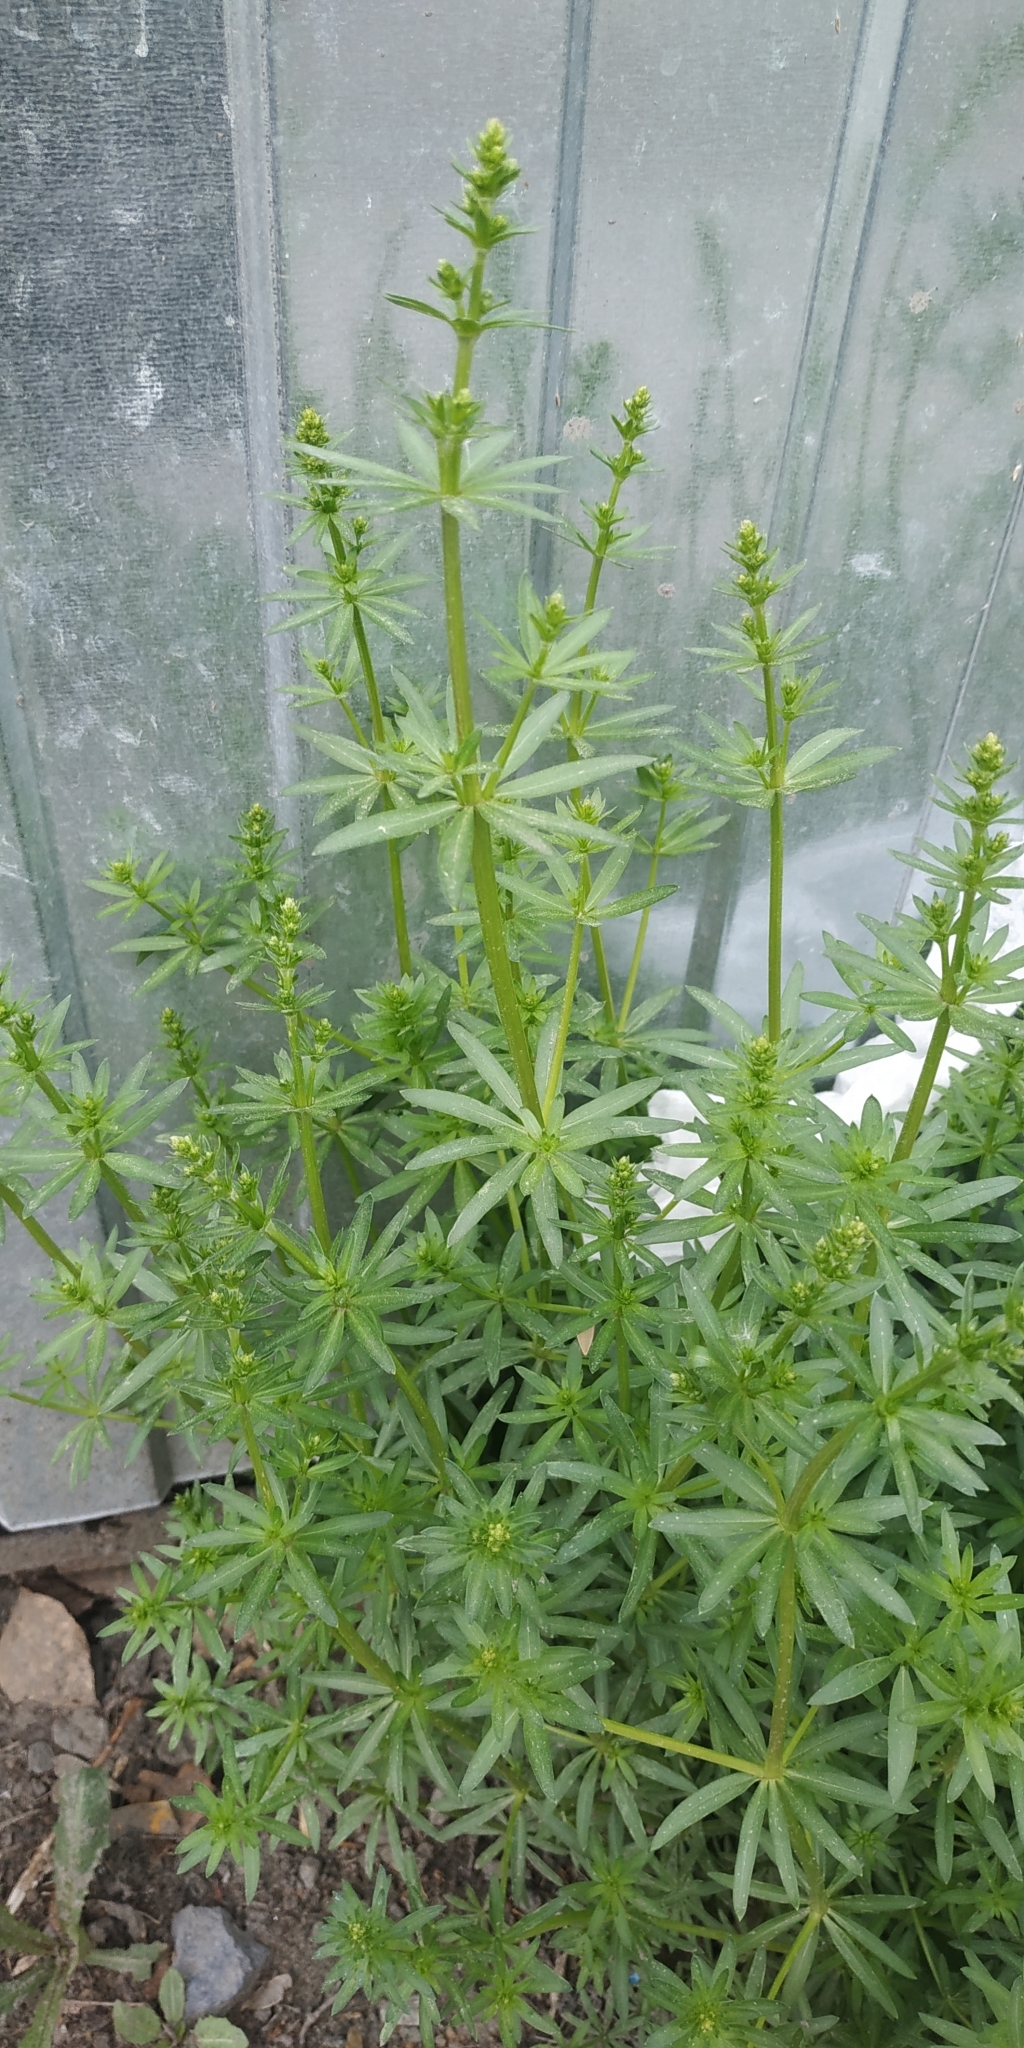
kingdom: Plantae
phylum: Tracheophyta
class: Magnoliopsida
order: Gentianales
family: Rubiaceae
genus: Galium
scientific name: Galium mollugo
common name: Hedge bedstraw
